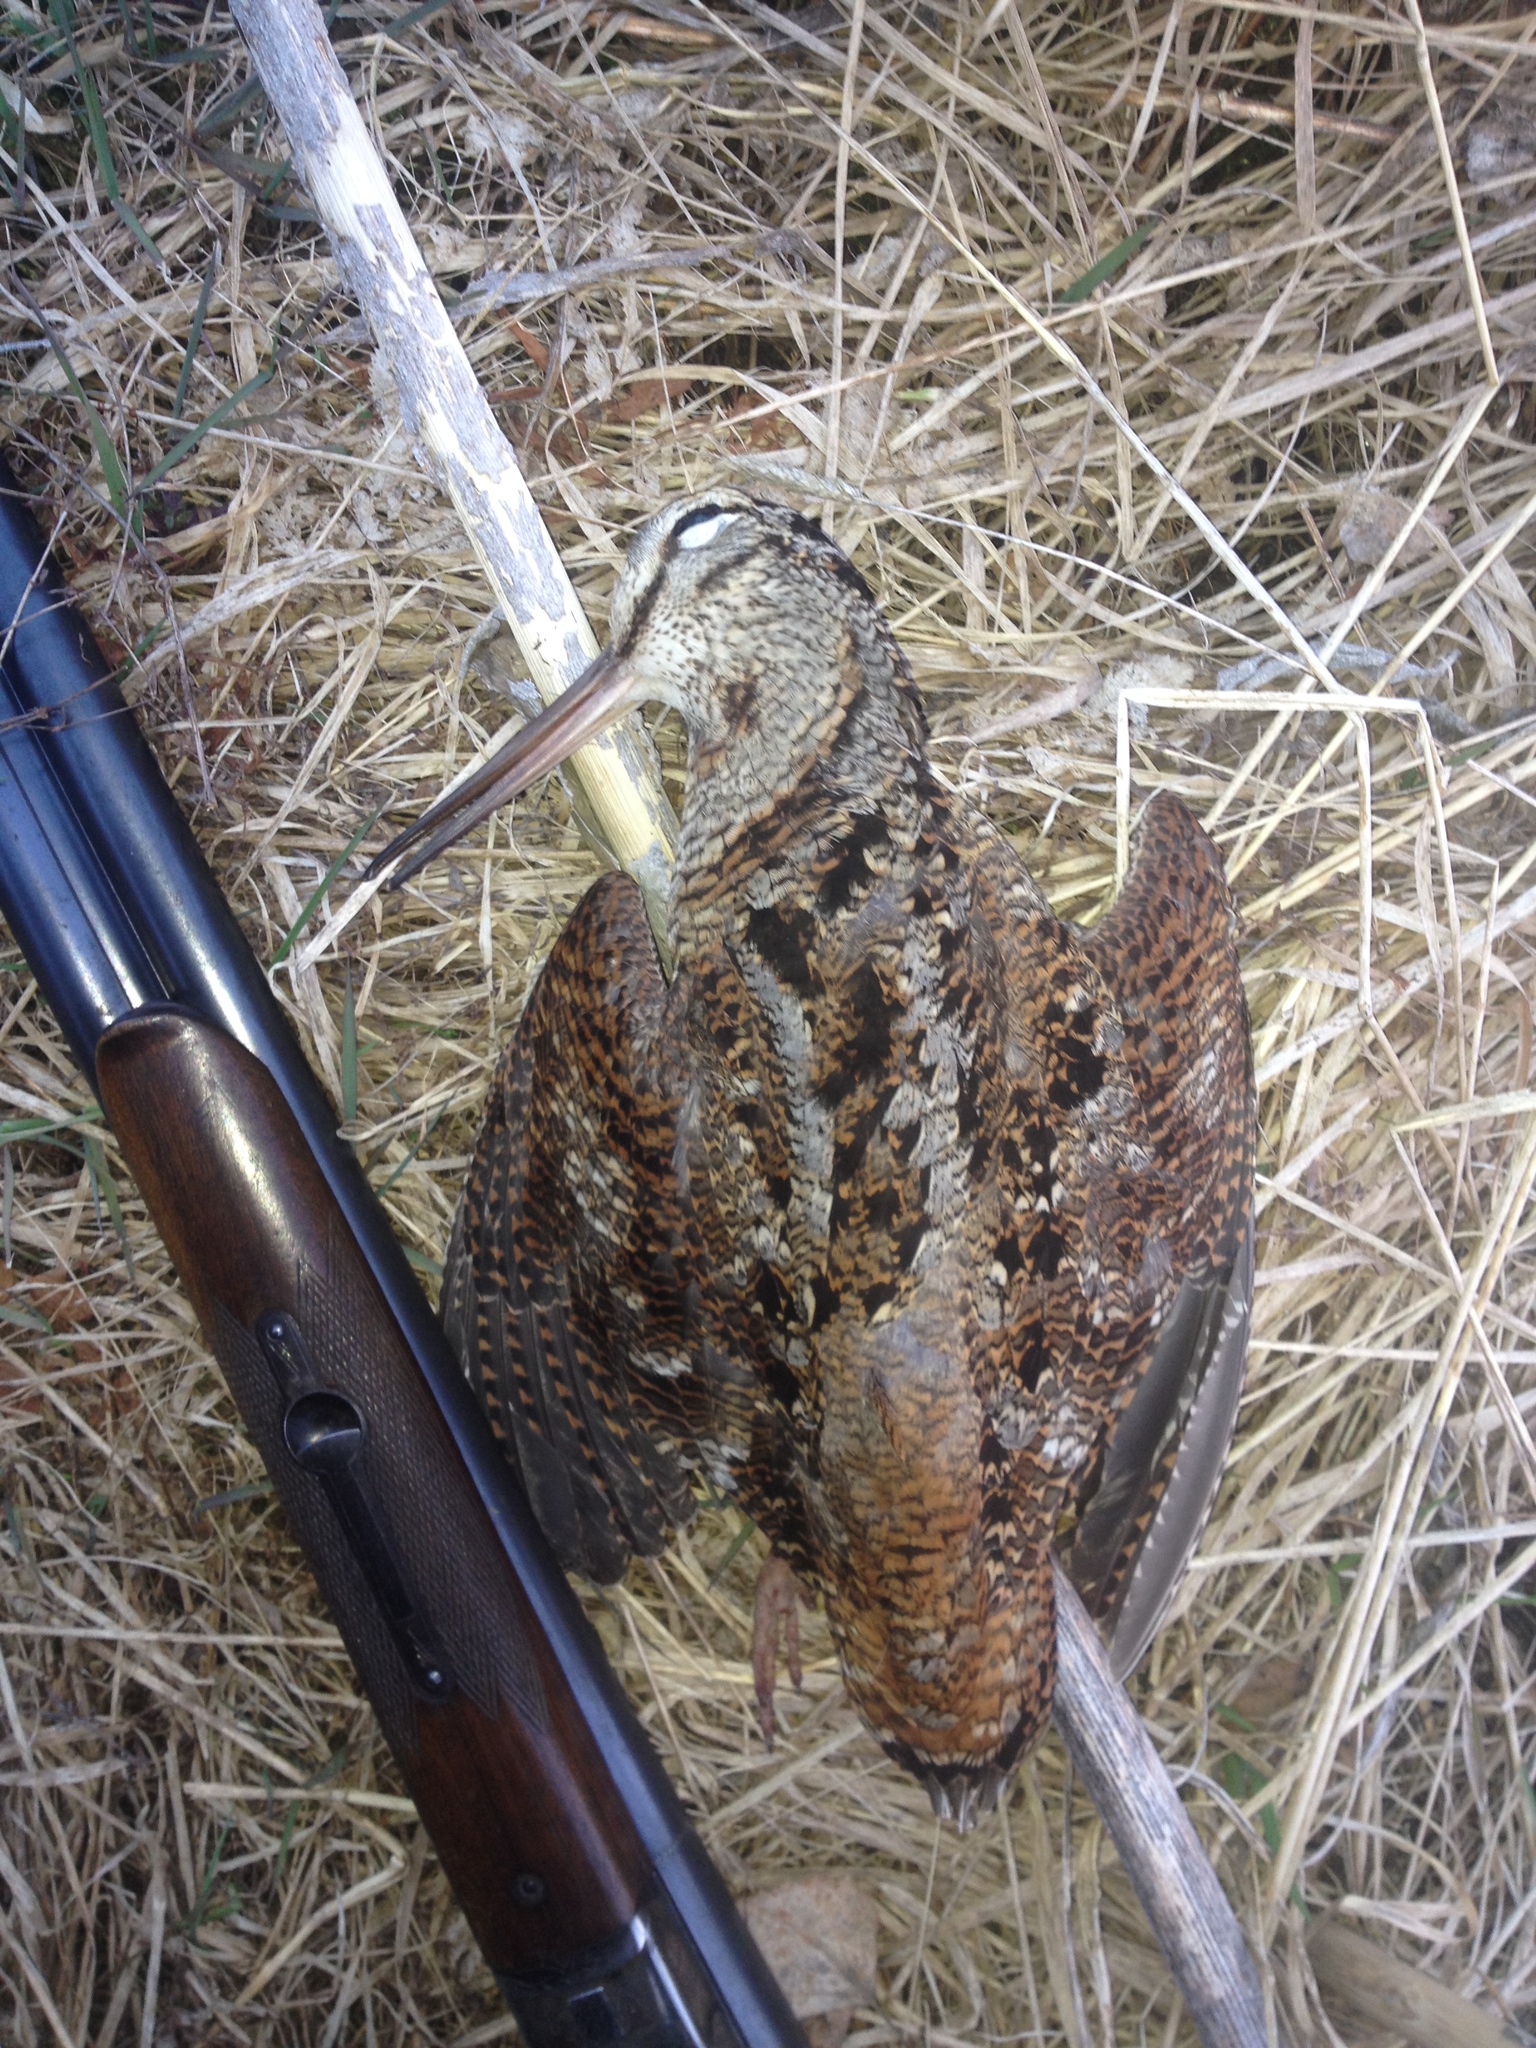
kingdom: Animalia
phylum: Chordata
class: Aves
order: Charadriiformes
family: Scolopacidae
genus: Scolopax
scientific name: Scolopax rusticola
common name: Eurasian woodcock
